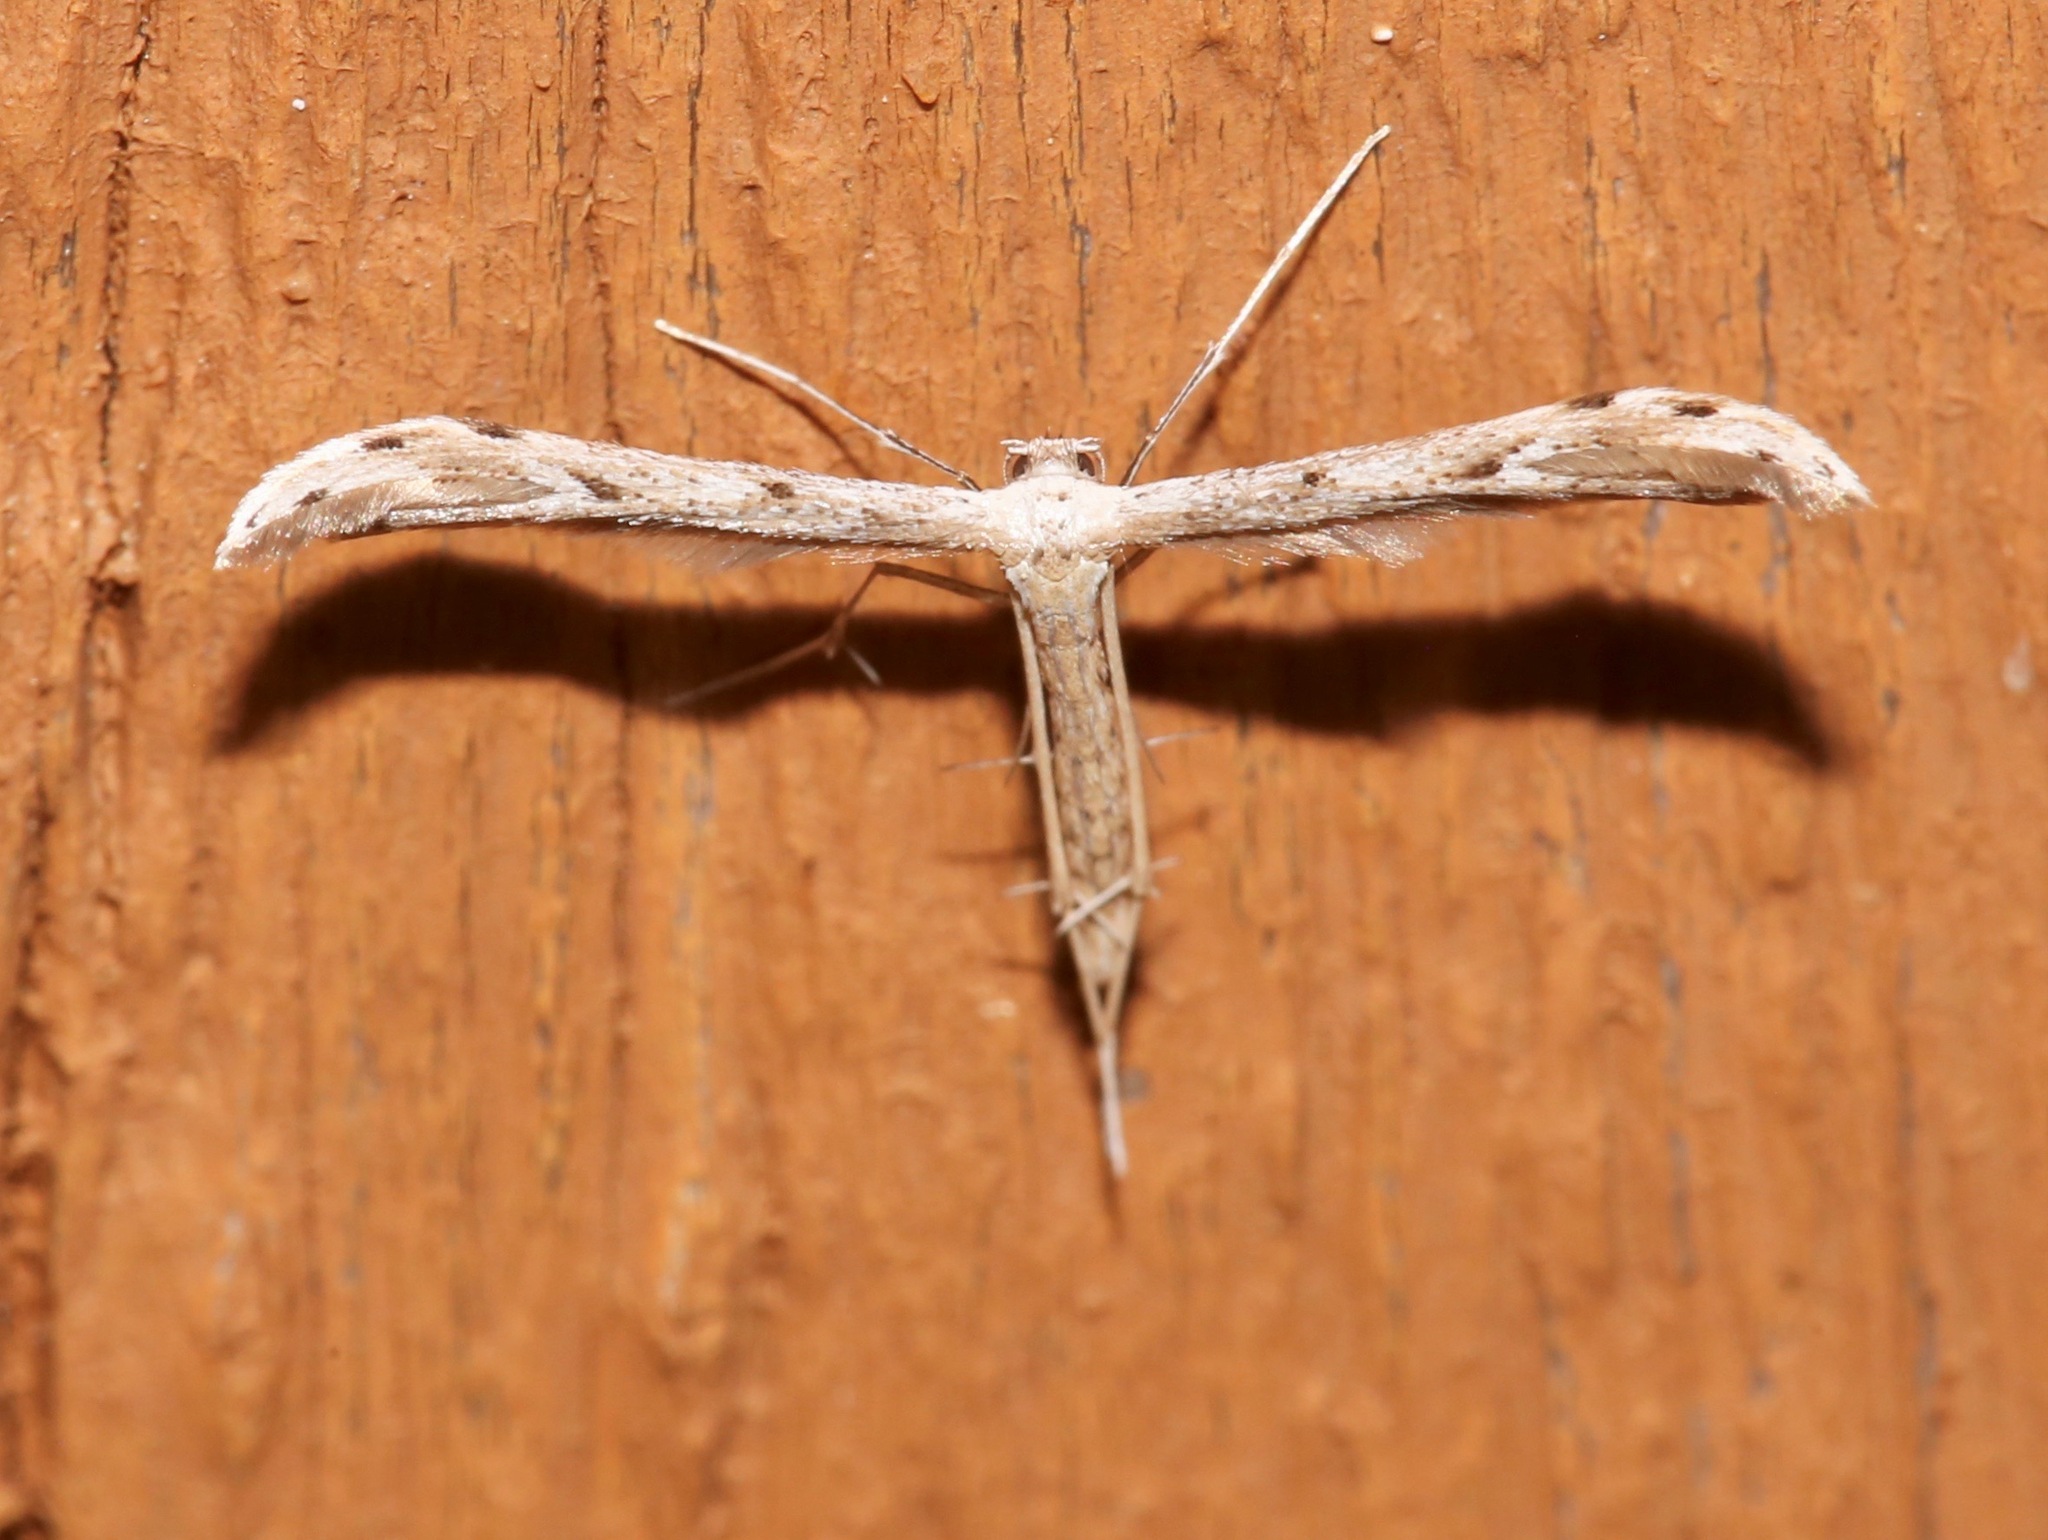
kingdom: Animalia
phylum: Arthropoda
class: Insecta
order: Lepidoptera
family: Pterophoridae
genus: Pselnophorus
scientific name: Pselnophorus belfragei
